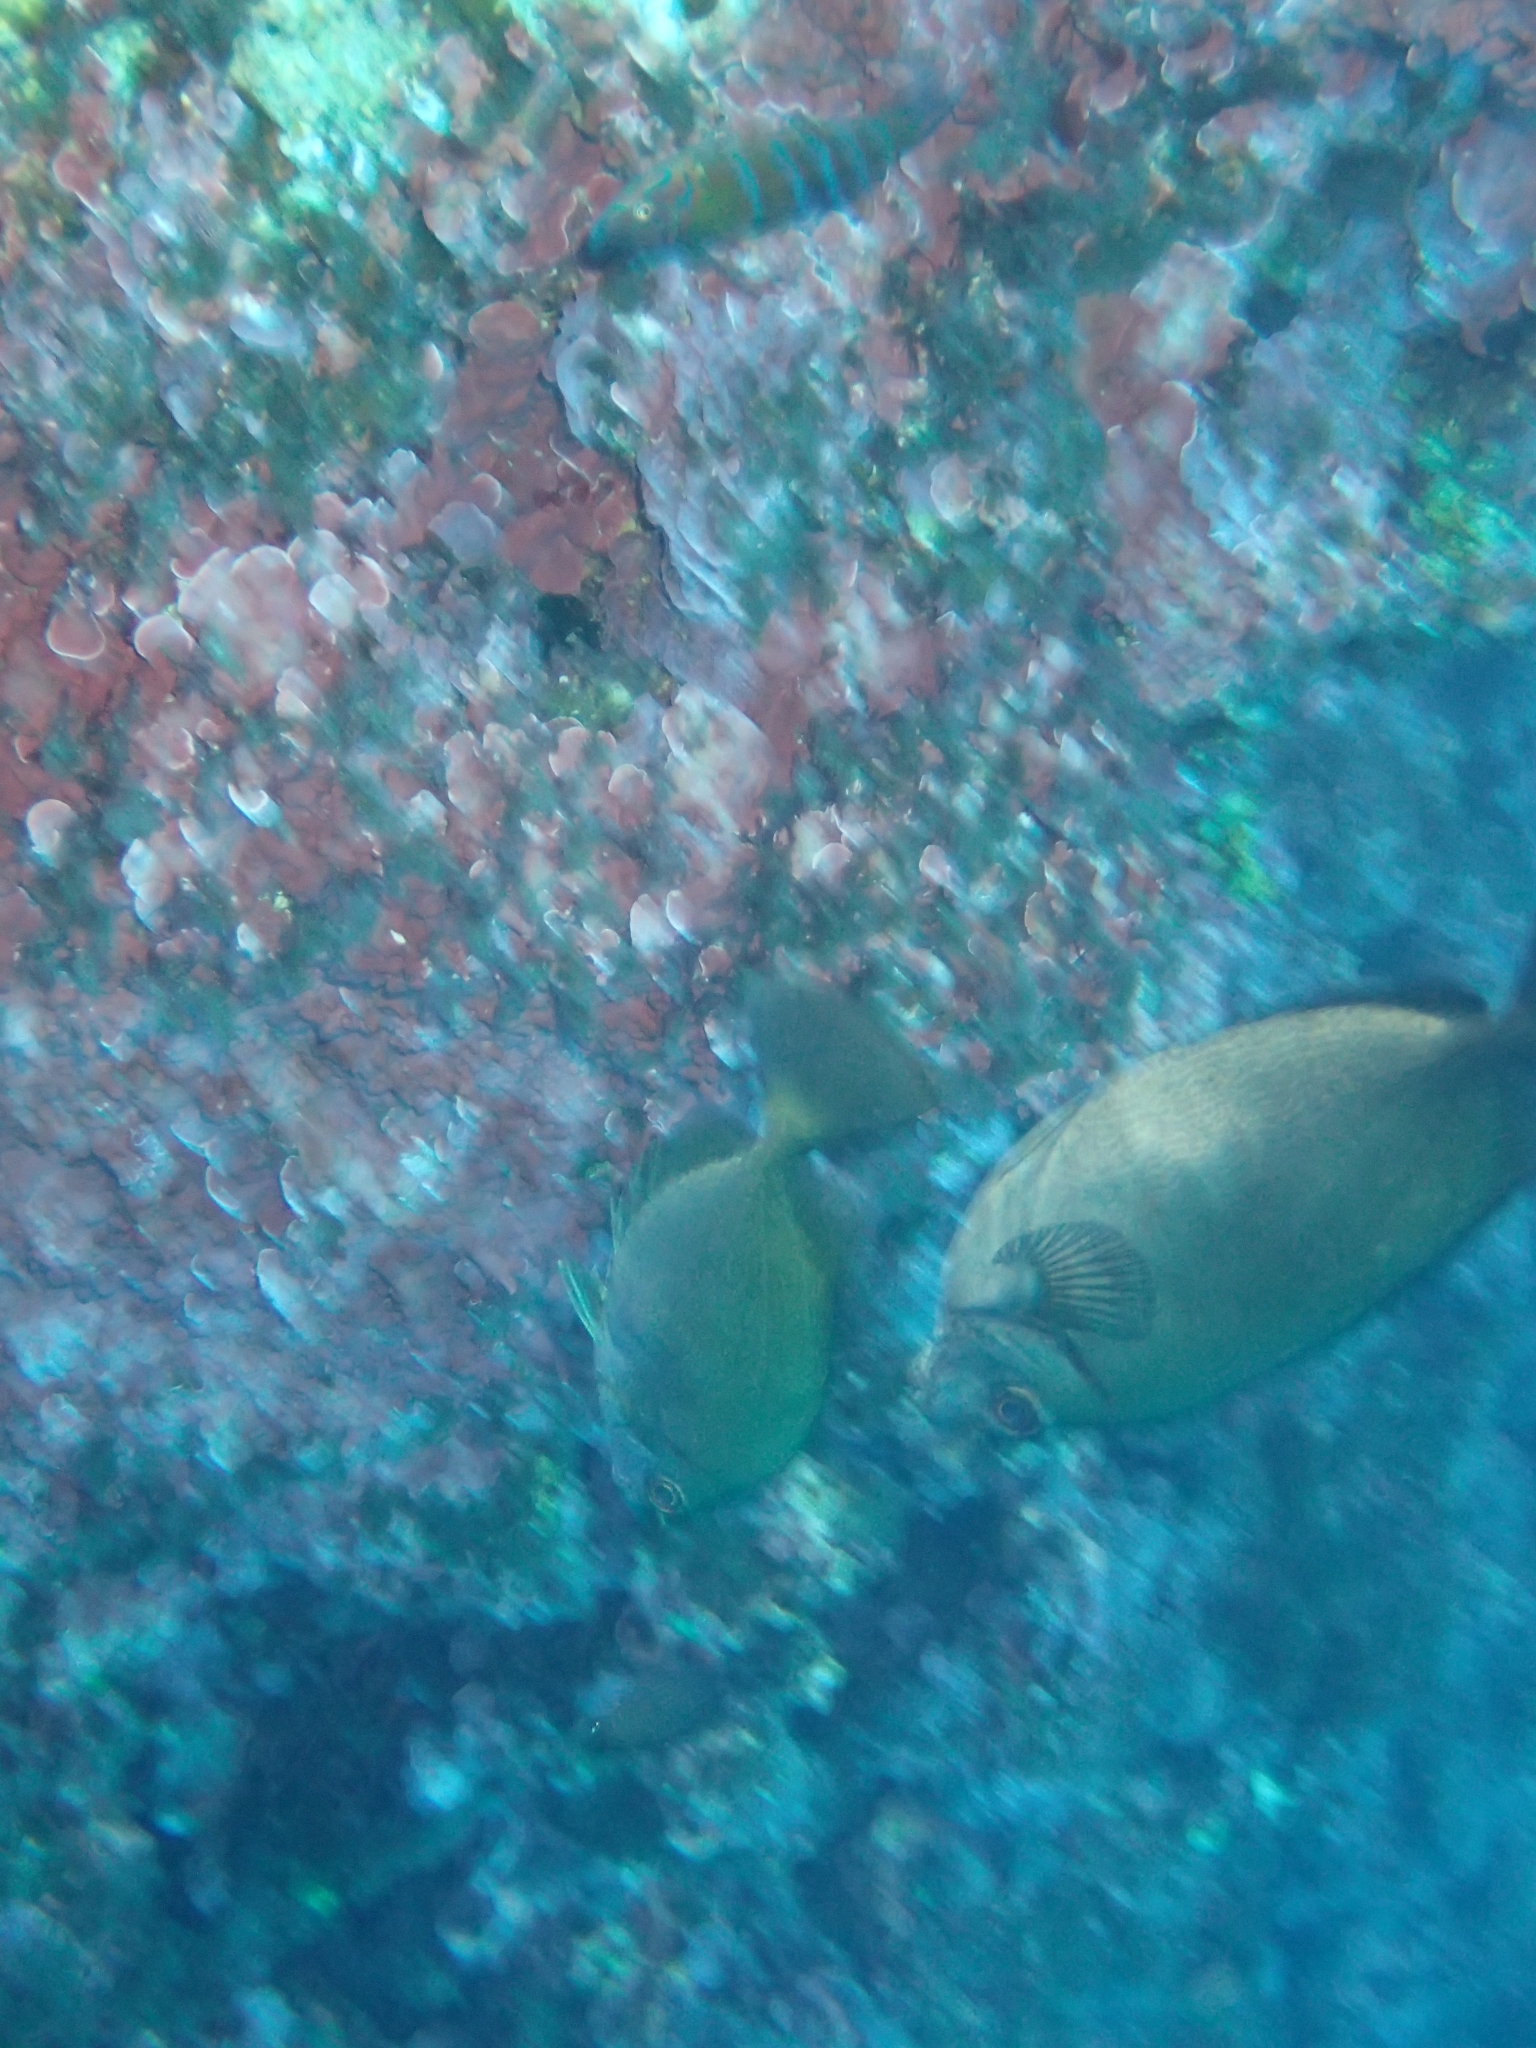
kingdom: Animalia
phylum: Chordata
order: Perciformes
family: Siganidae
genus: Siganus
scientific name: Siganus luridus
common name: Dusky spinefoot
